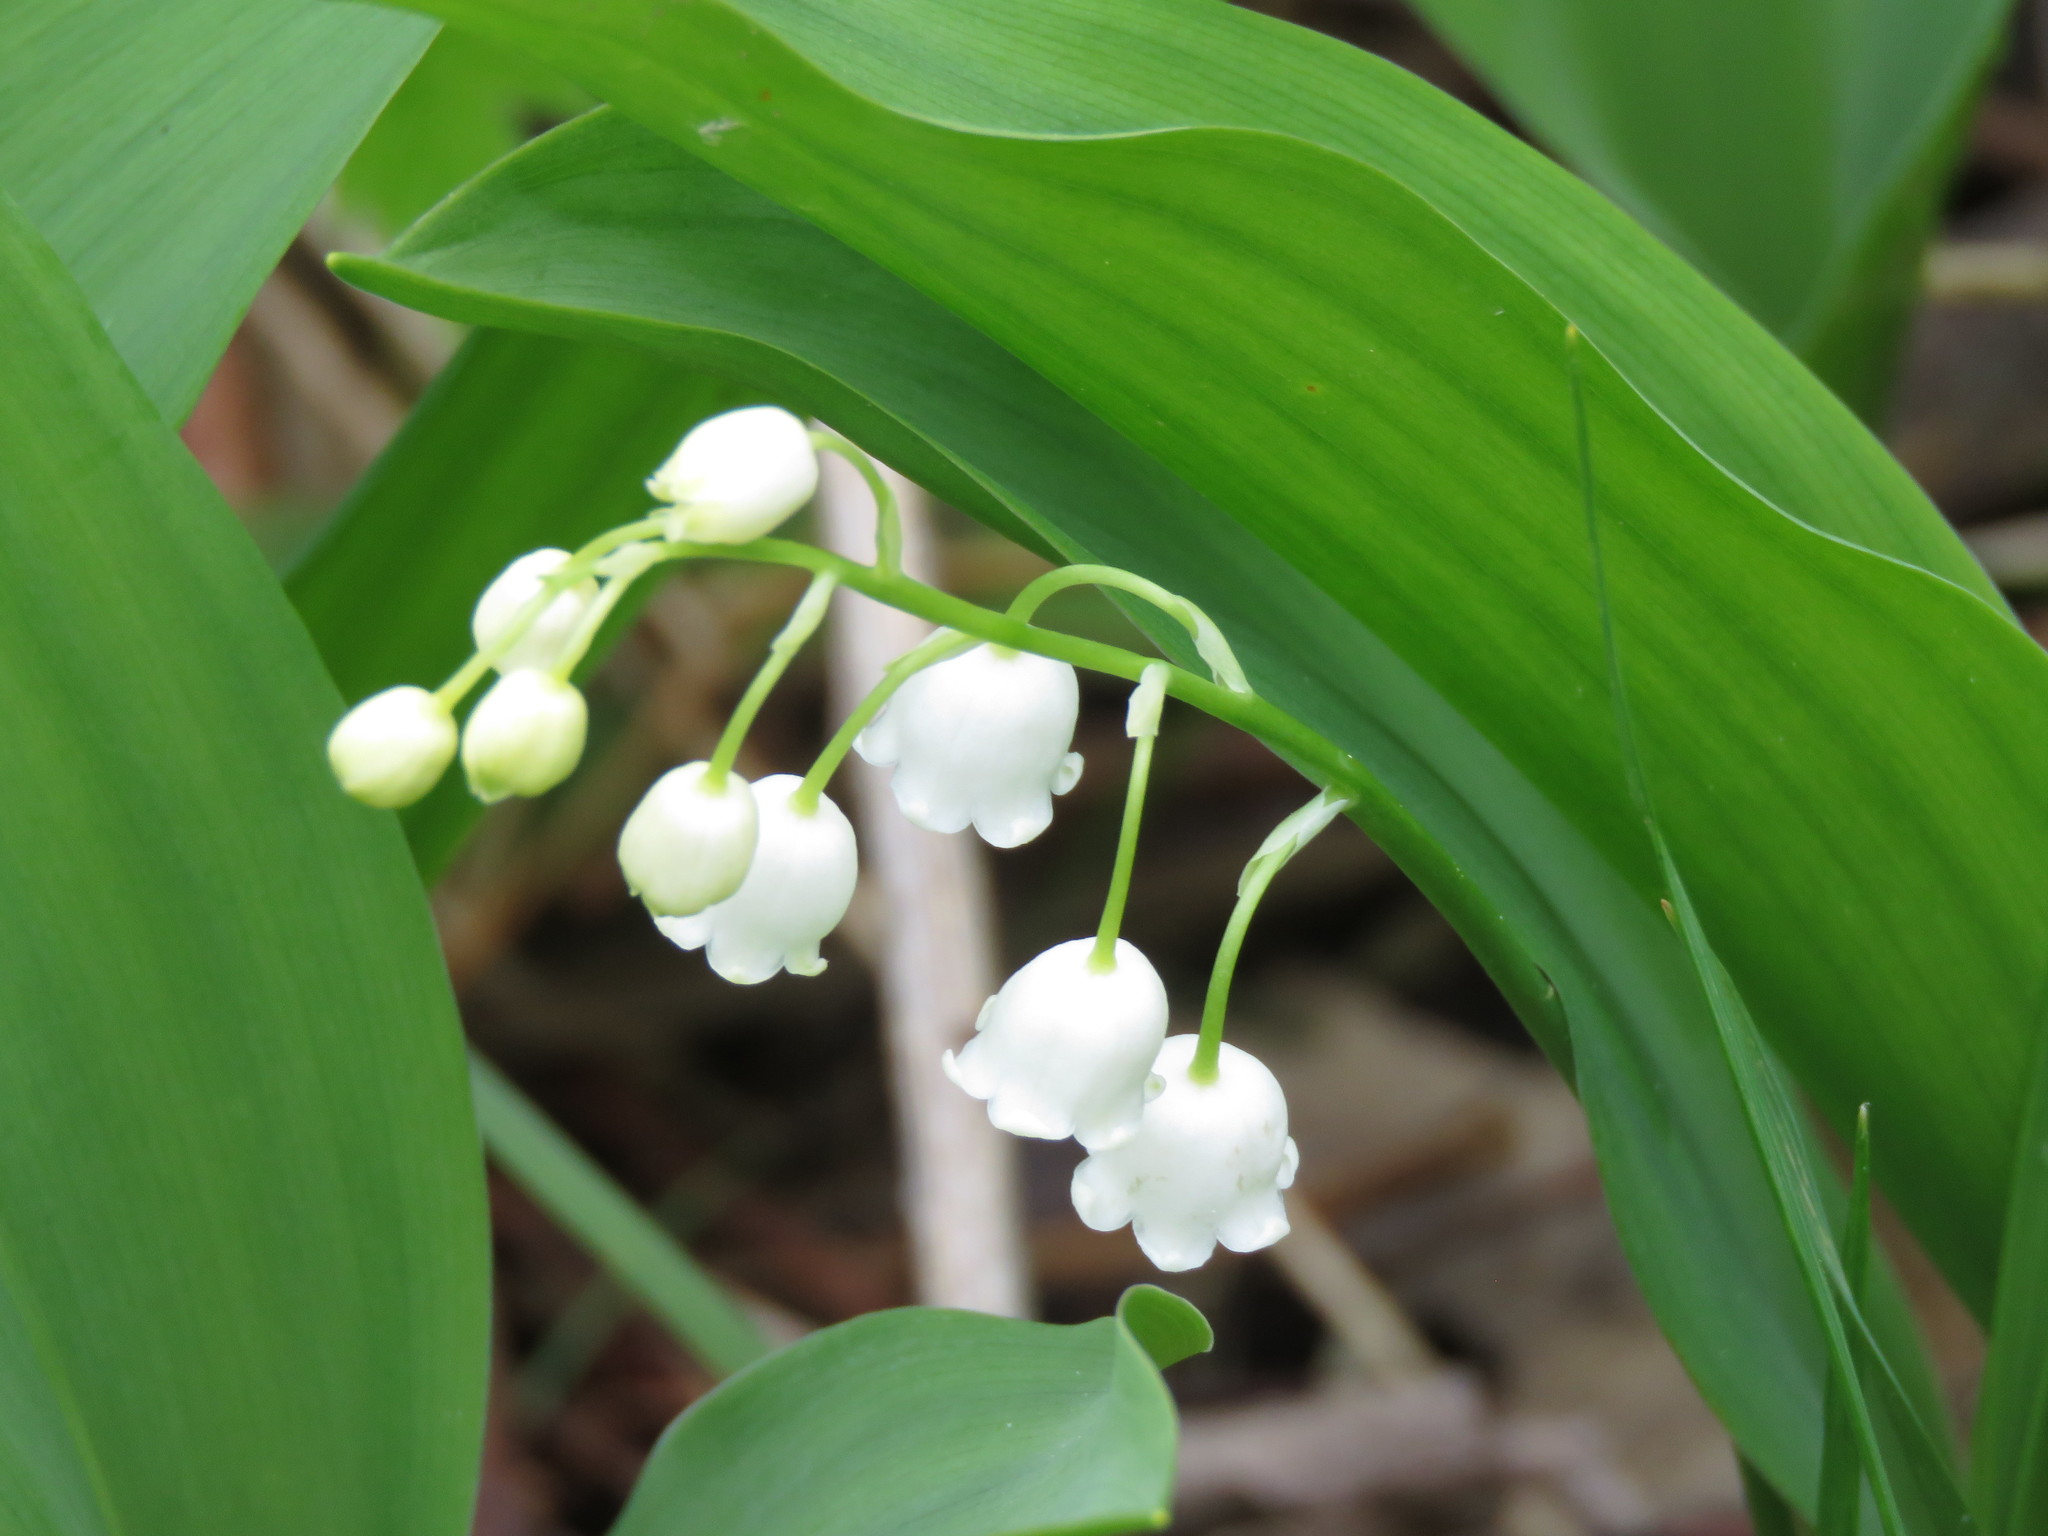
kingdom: Plantae
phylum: Tracheophyta
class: Liliopsida
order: Asparagales
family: Asparagaceae
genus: Convallaria
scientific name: Convallaria majalis
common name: Lily-of-the-valley
